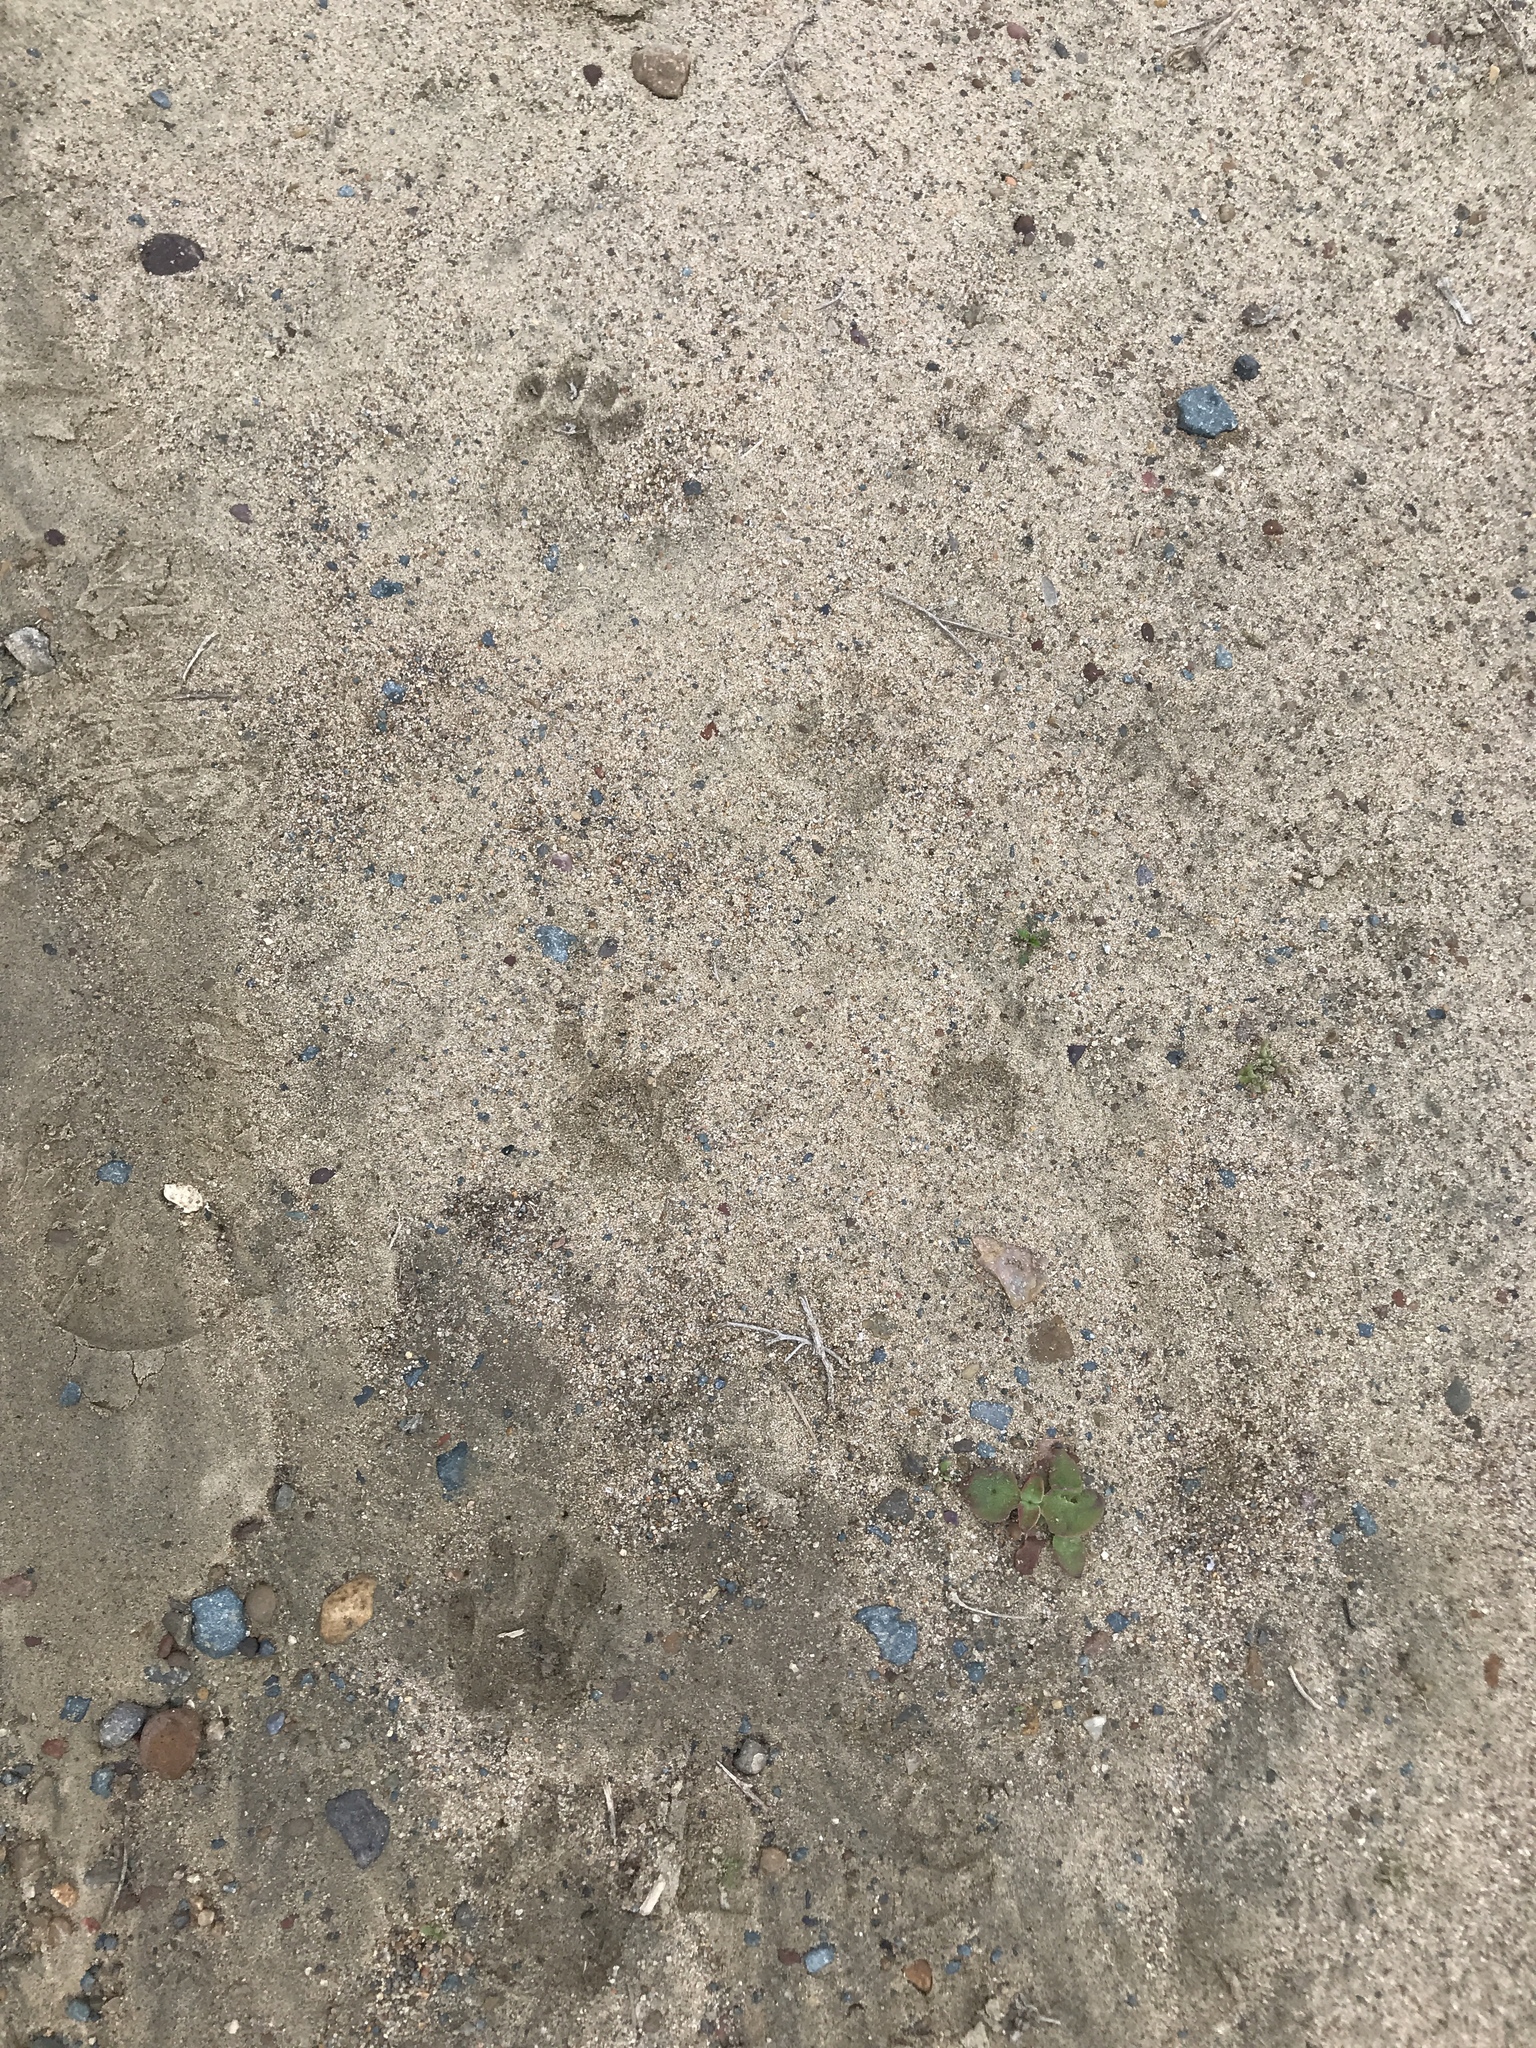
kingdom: Animalia
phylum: Chordata
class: Mammalia
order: Carnivora
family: Procyonidae
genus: Procyon
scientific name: Procyon lotor
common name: Raccoon
